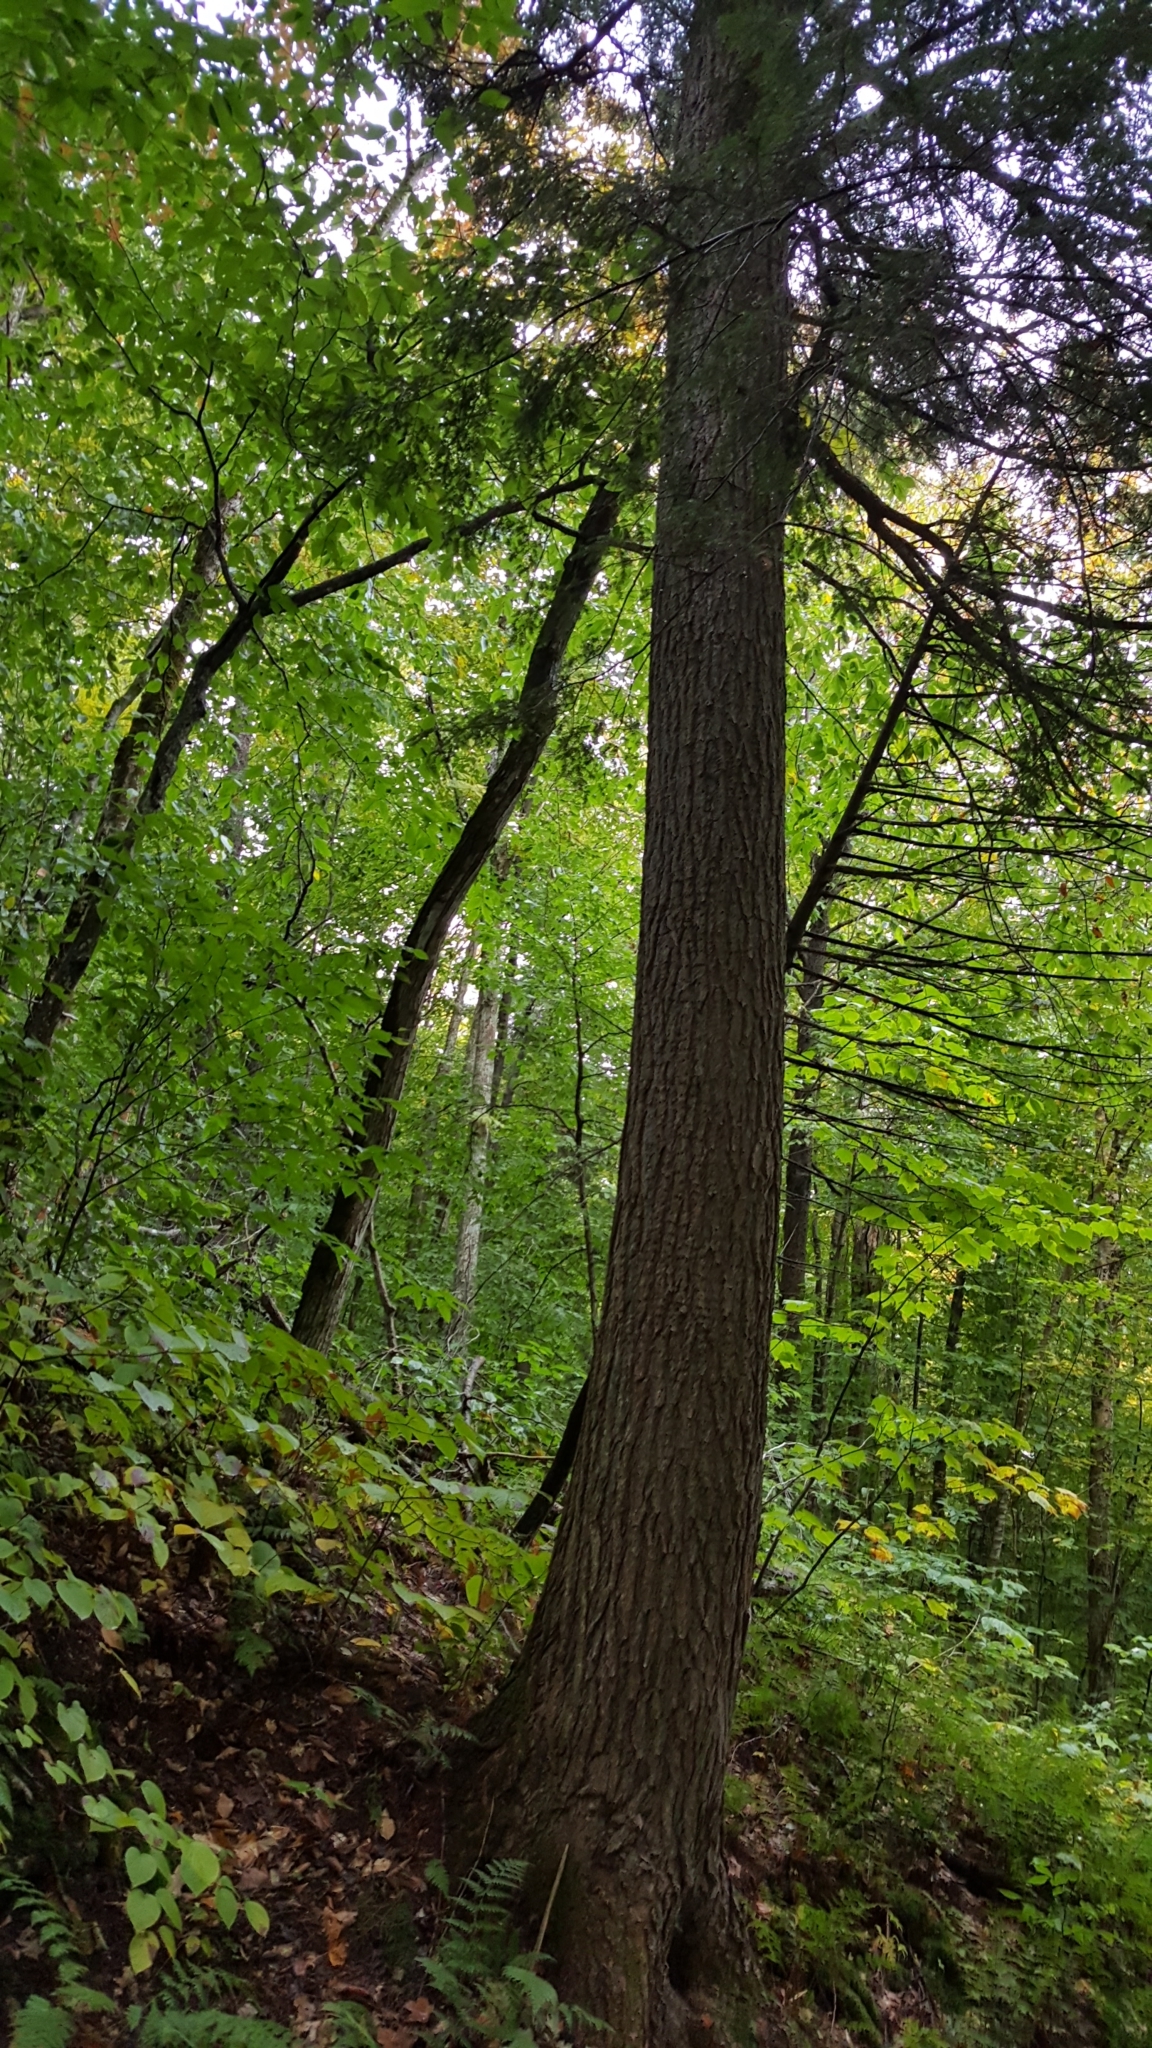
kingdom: Plantae
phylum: Tracheophyta
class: Pinopsida
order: Pinales
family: Pinaceae
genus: Tsuga
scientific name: Tsuga canadensis
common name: Eastern hemlock
